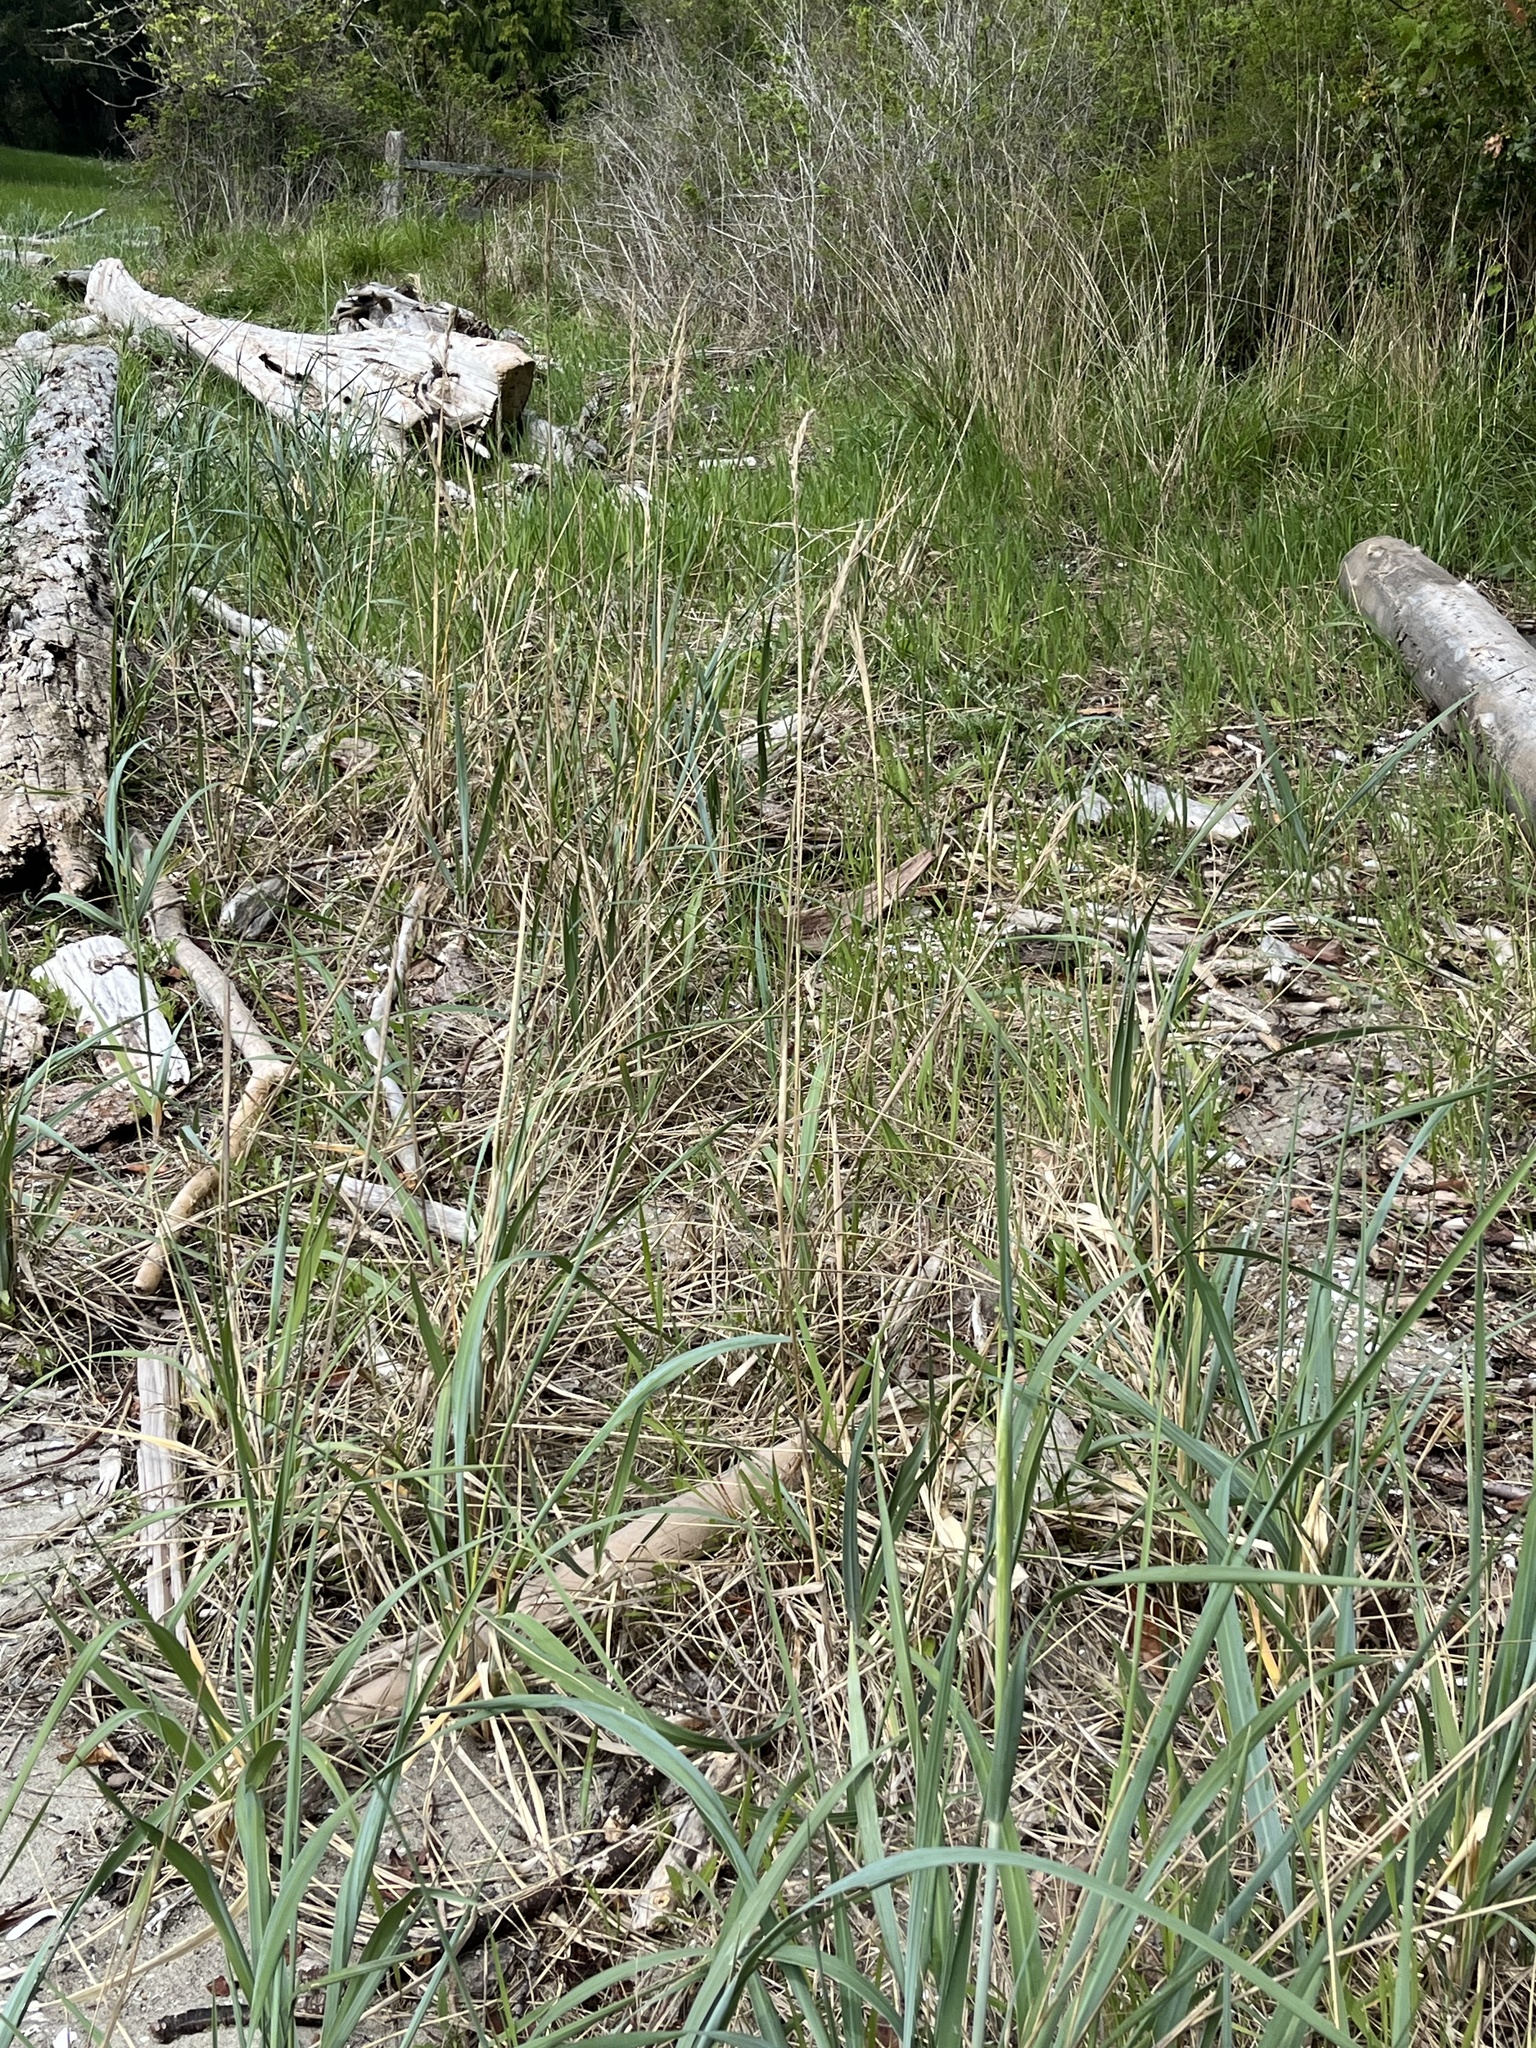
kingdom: Plantae
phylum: Tracheophyta
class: Liliopsida
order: Poales
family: Poaceae
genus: Leymus
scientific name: Leymus mollis
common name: American dune grass
